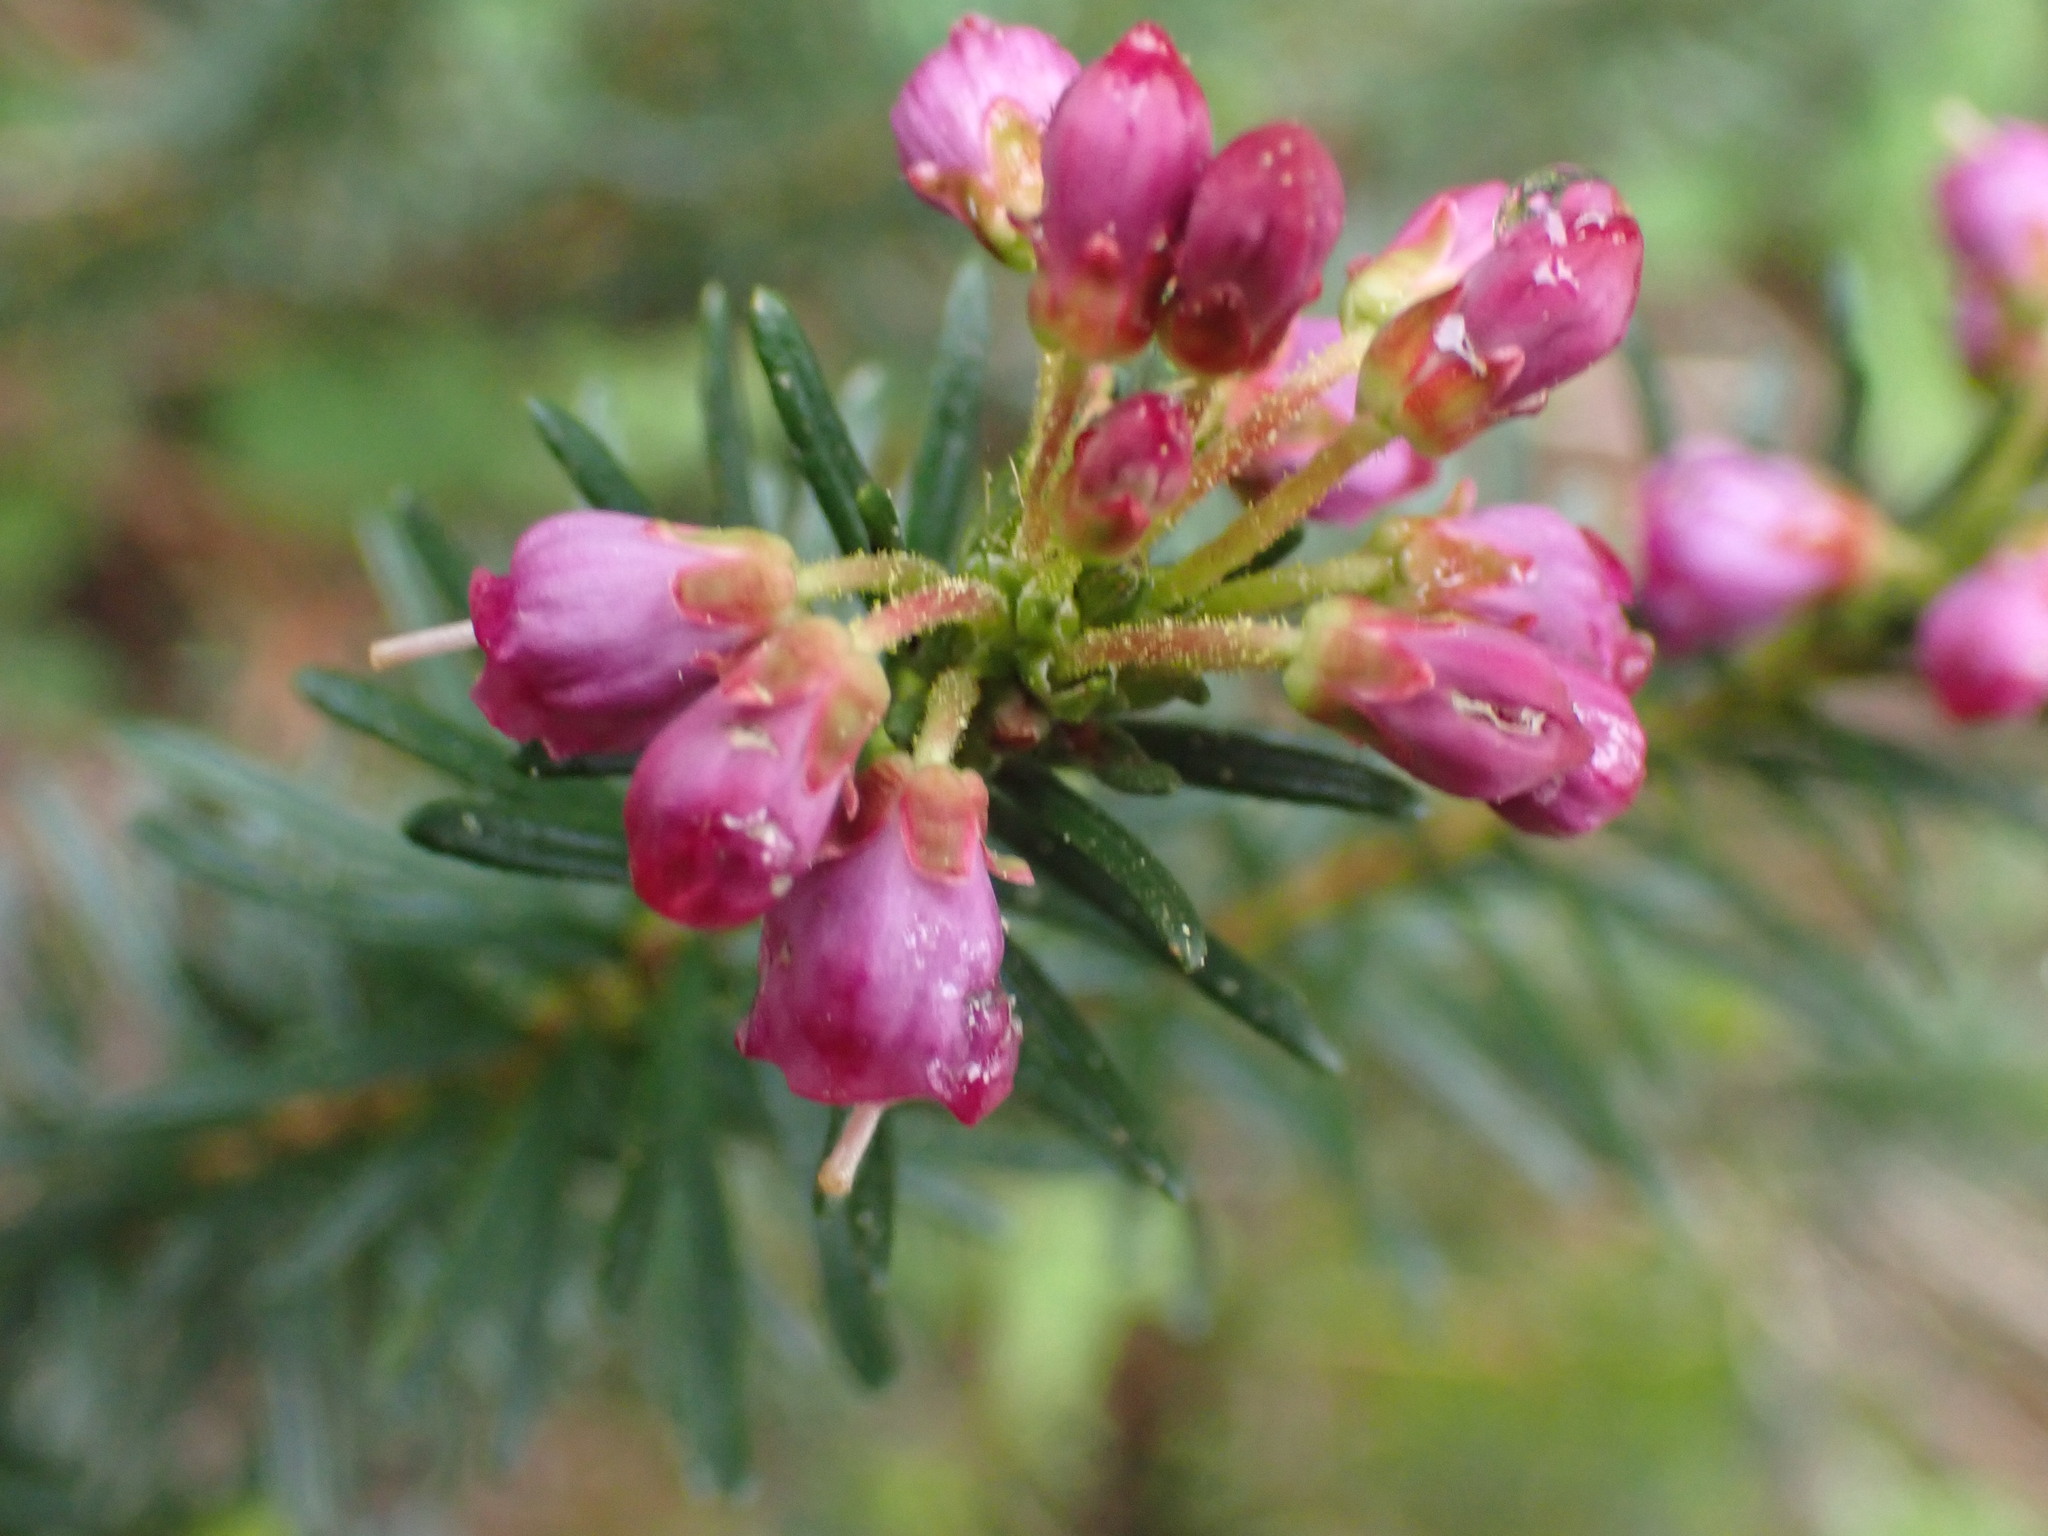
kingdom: Plantae
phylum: Tracheophyta
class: Magnoliopsida
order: Ericales
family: Ericaceae
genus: Phyllodoce
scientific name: Phyllodoce empetriformis
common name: Pink mountain heather
